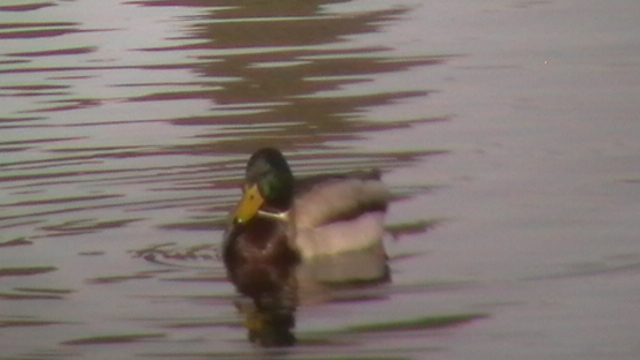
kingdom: Animalia
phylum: Chordata
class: Aves
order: Anseriformes
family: Anatidae
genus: Anas
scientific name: Anas platyrhynchos
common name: Mallard
